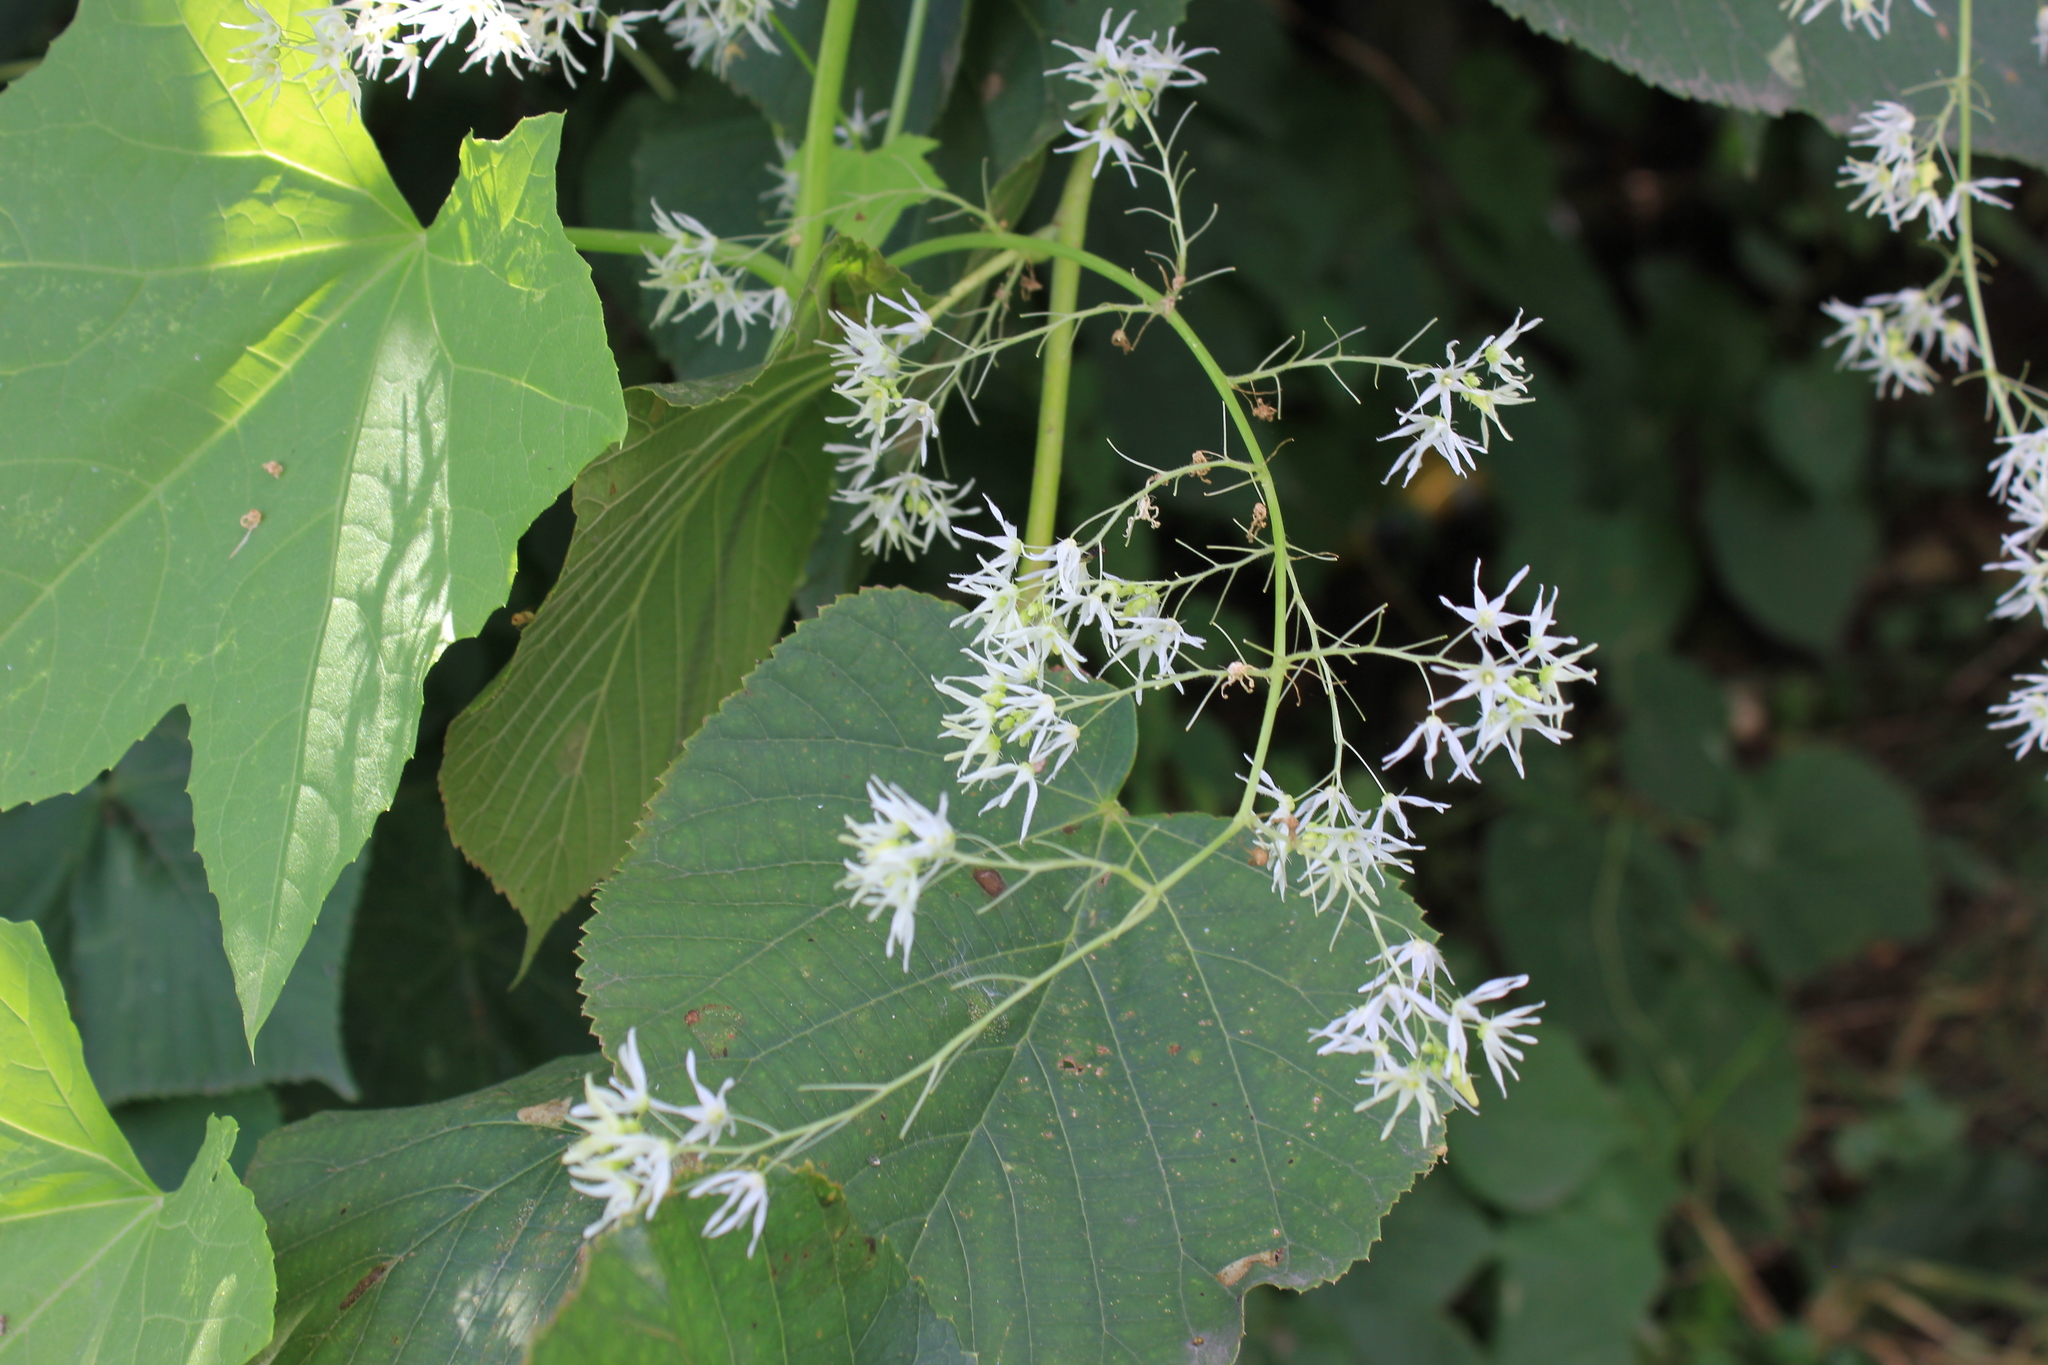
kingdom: Plantae
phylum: Tracheophyta
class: Magnoliopsida
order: Cucurbitales
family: Cucurbitaceae
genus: Echinocystis
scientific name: Echinocystis lobata
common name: Wild cucumber
